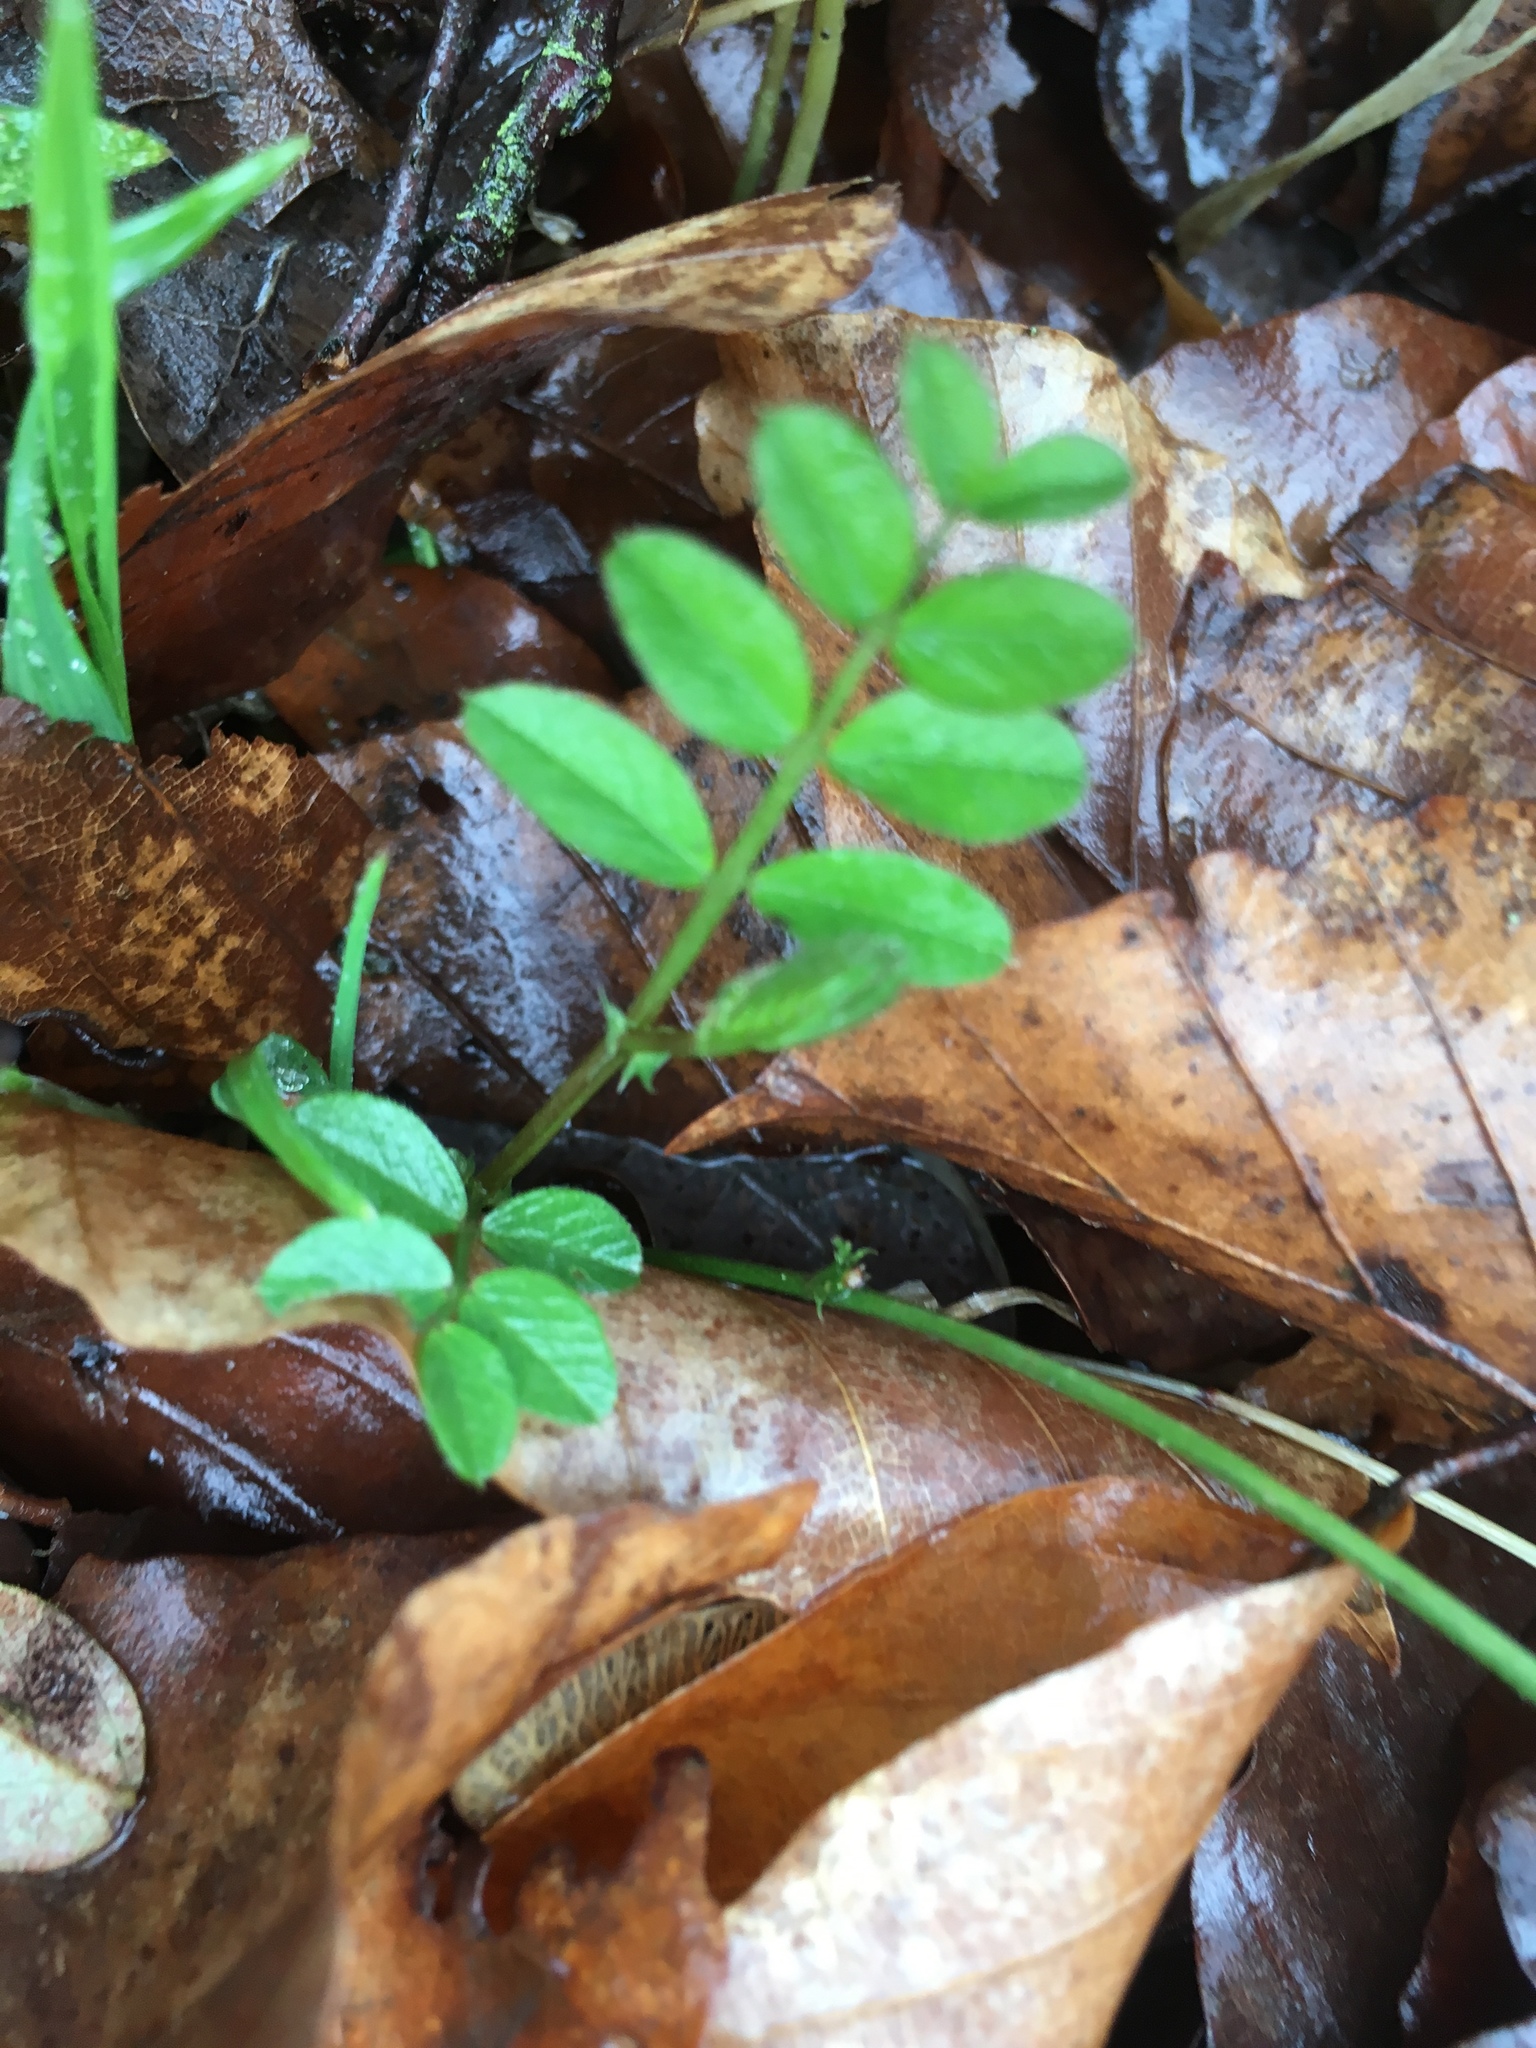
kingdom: Plantae
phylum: Tracheophyta
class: Magnoliopsida
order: Fabales
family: Fabaceae
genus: Vicia
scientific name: Vicia sepium
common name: Bush vetch
